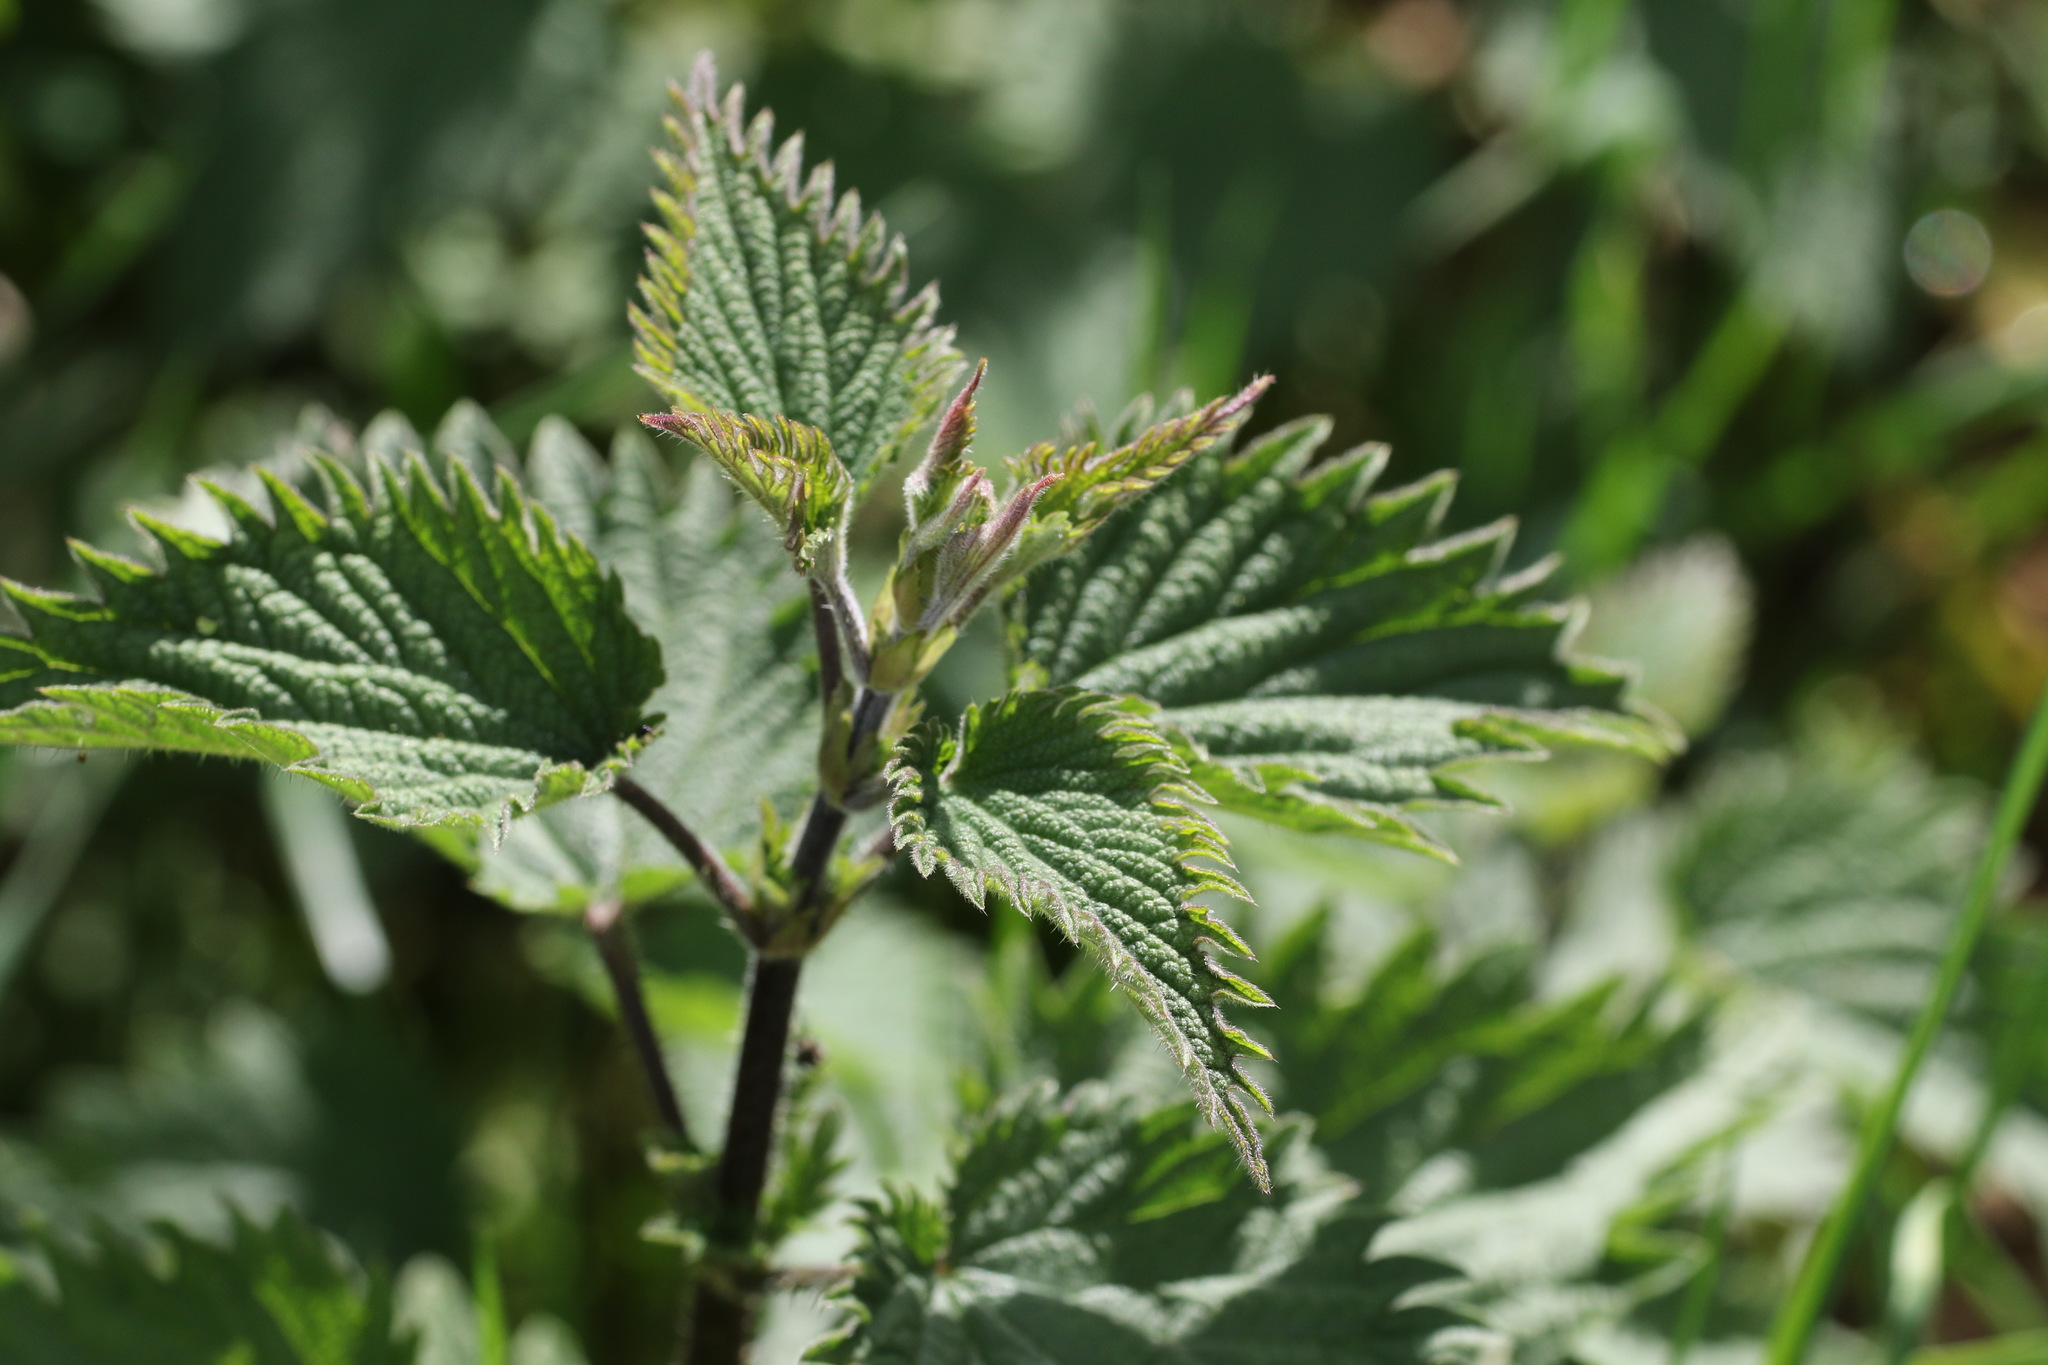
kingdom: Plantae
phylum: Tracheophyta
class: Magnoliopsida
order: Rosales
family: Urticaceae
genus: Urtica
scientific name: Urtica dioica
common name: Common nettle
